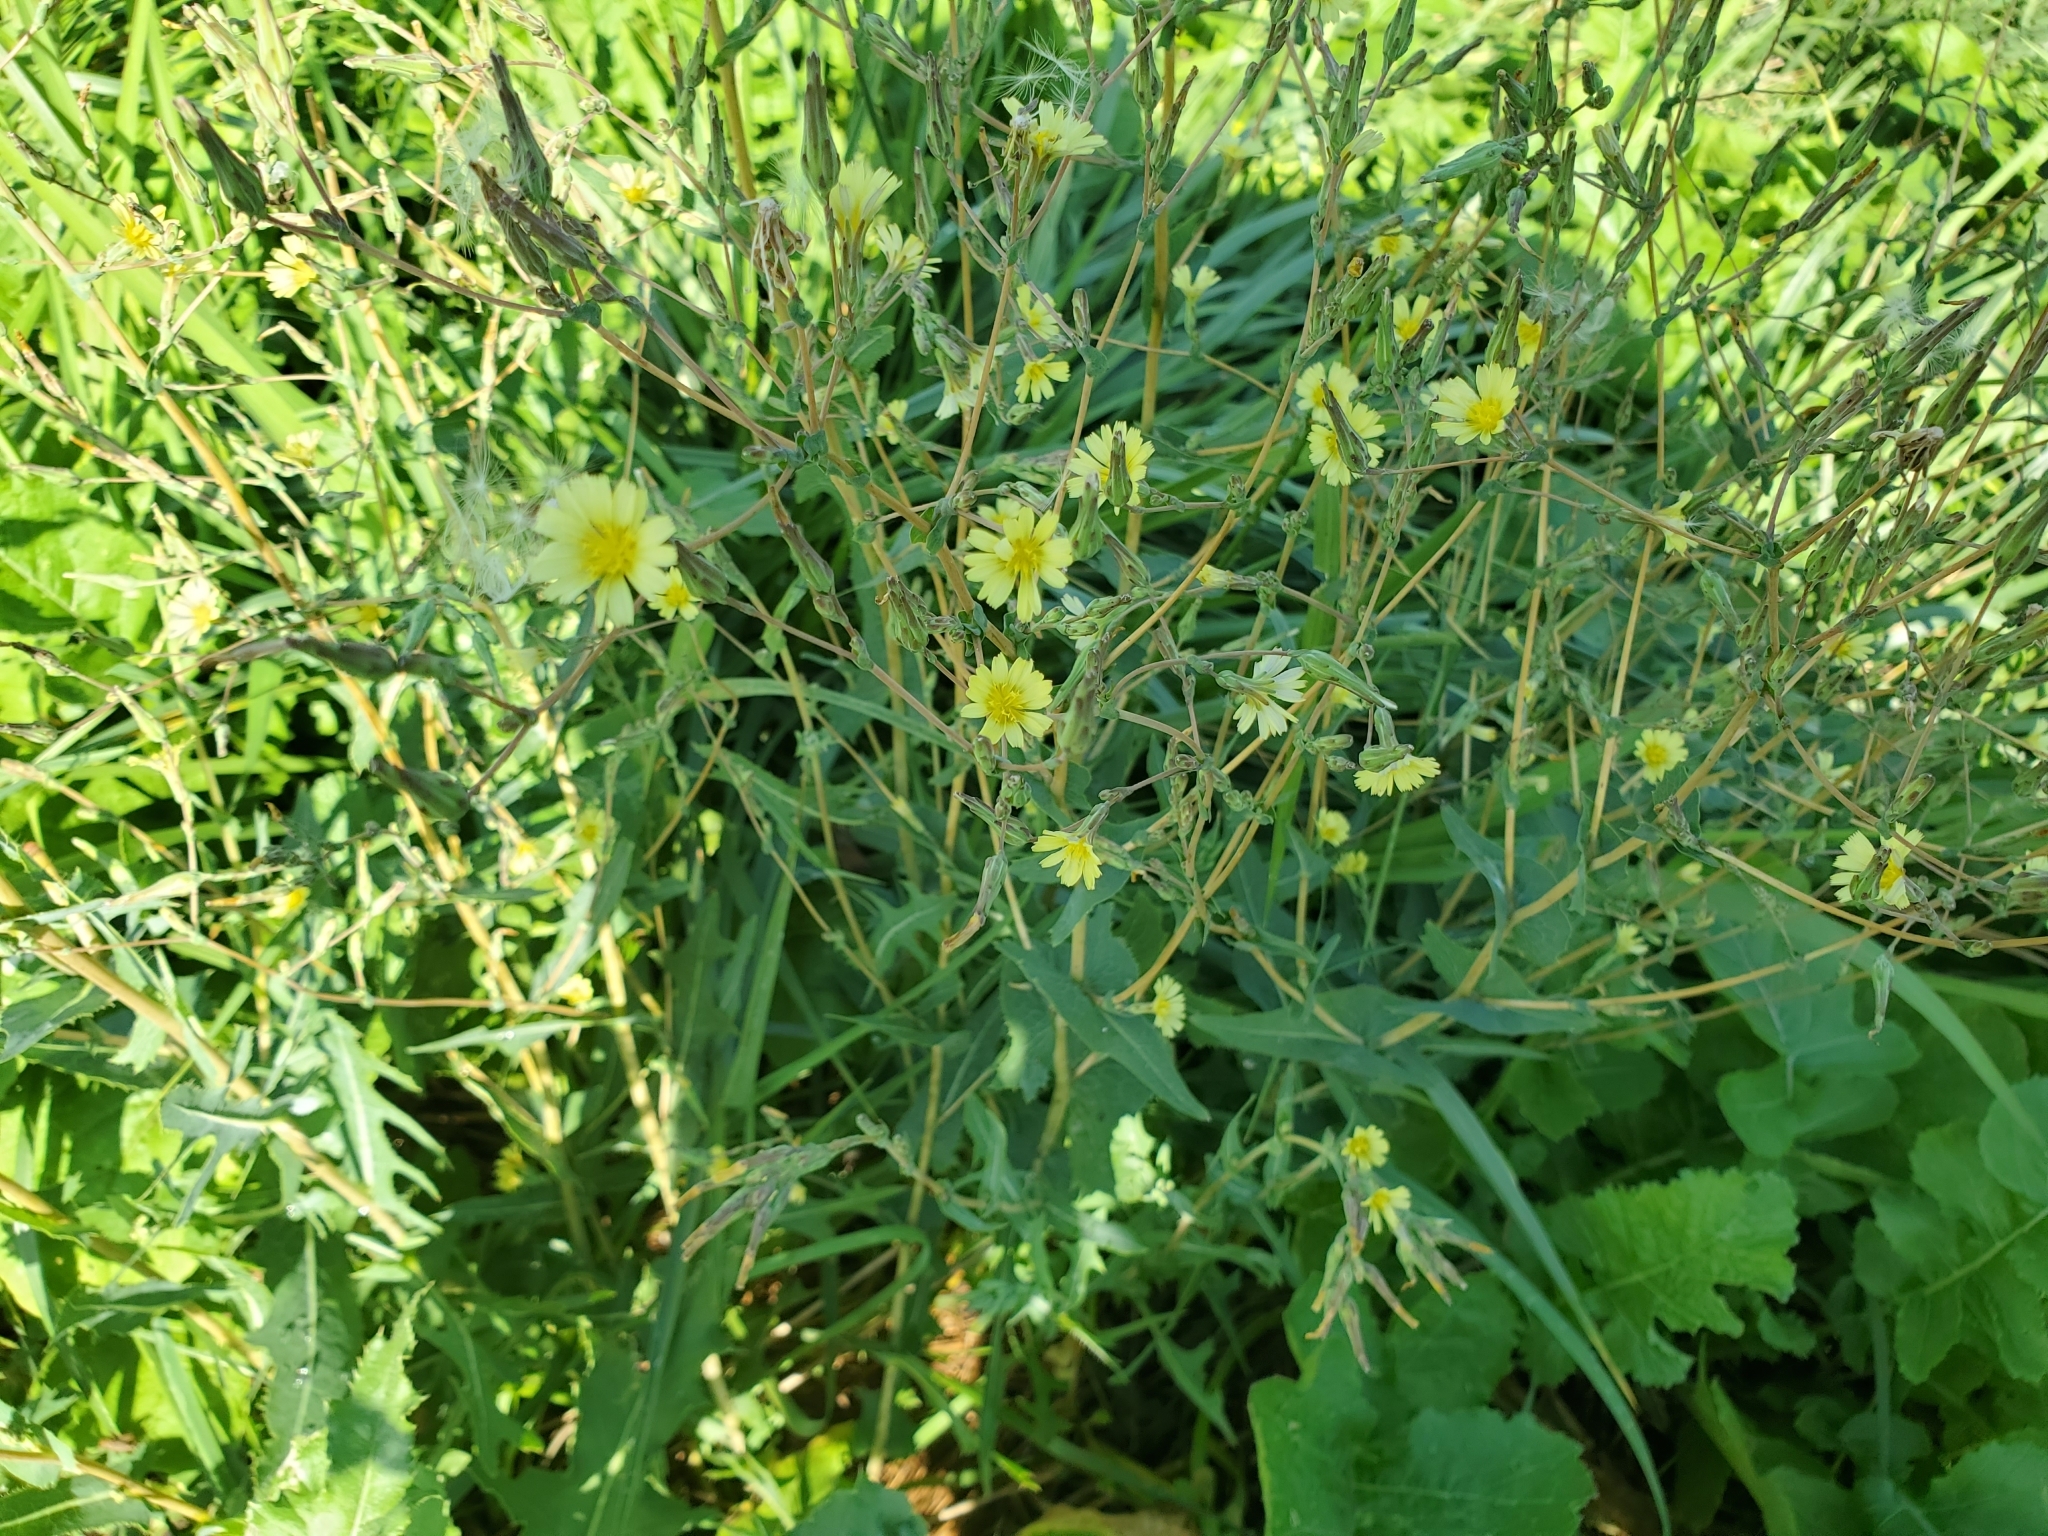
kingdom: Plantae
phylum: Tracheophyta
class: Magnoliopsida
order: Asterales
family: Asteraceae
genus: Lactuca
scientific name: Lactuca serriola
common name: Prickly lettuce
